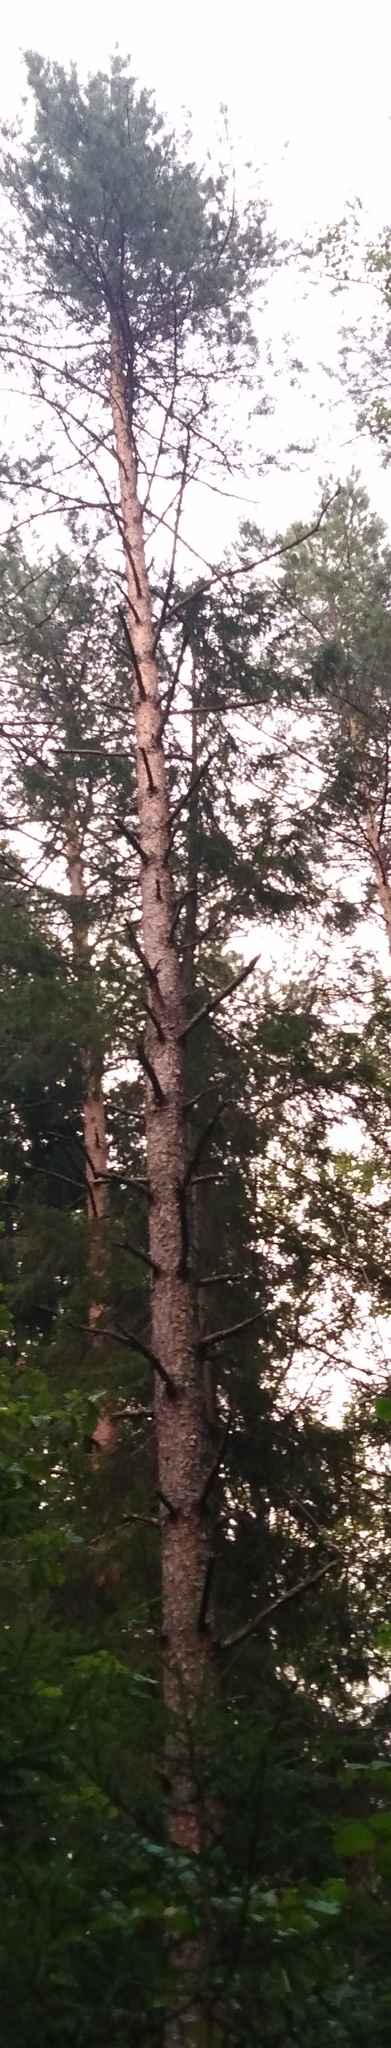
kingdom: Plantae
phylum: Tracheophyta
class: Pinopsida
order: Pinales
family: Pinaceae
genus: Pinus
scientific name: Pinus sylvestris
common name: Scots pine
